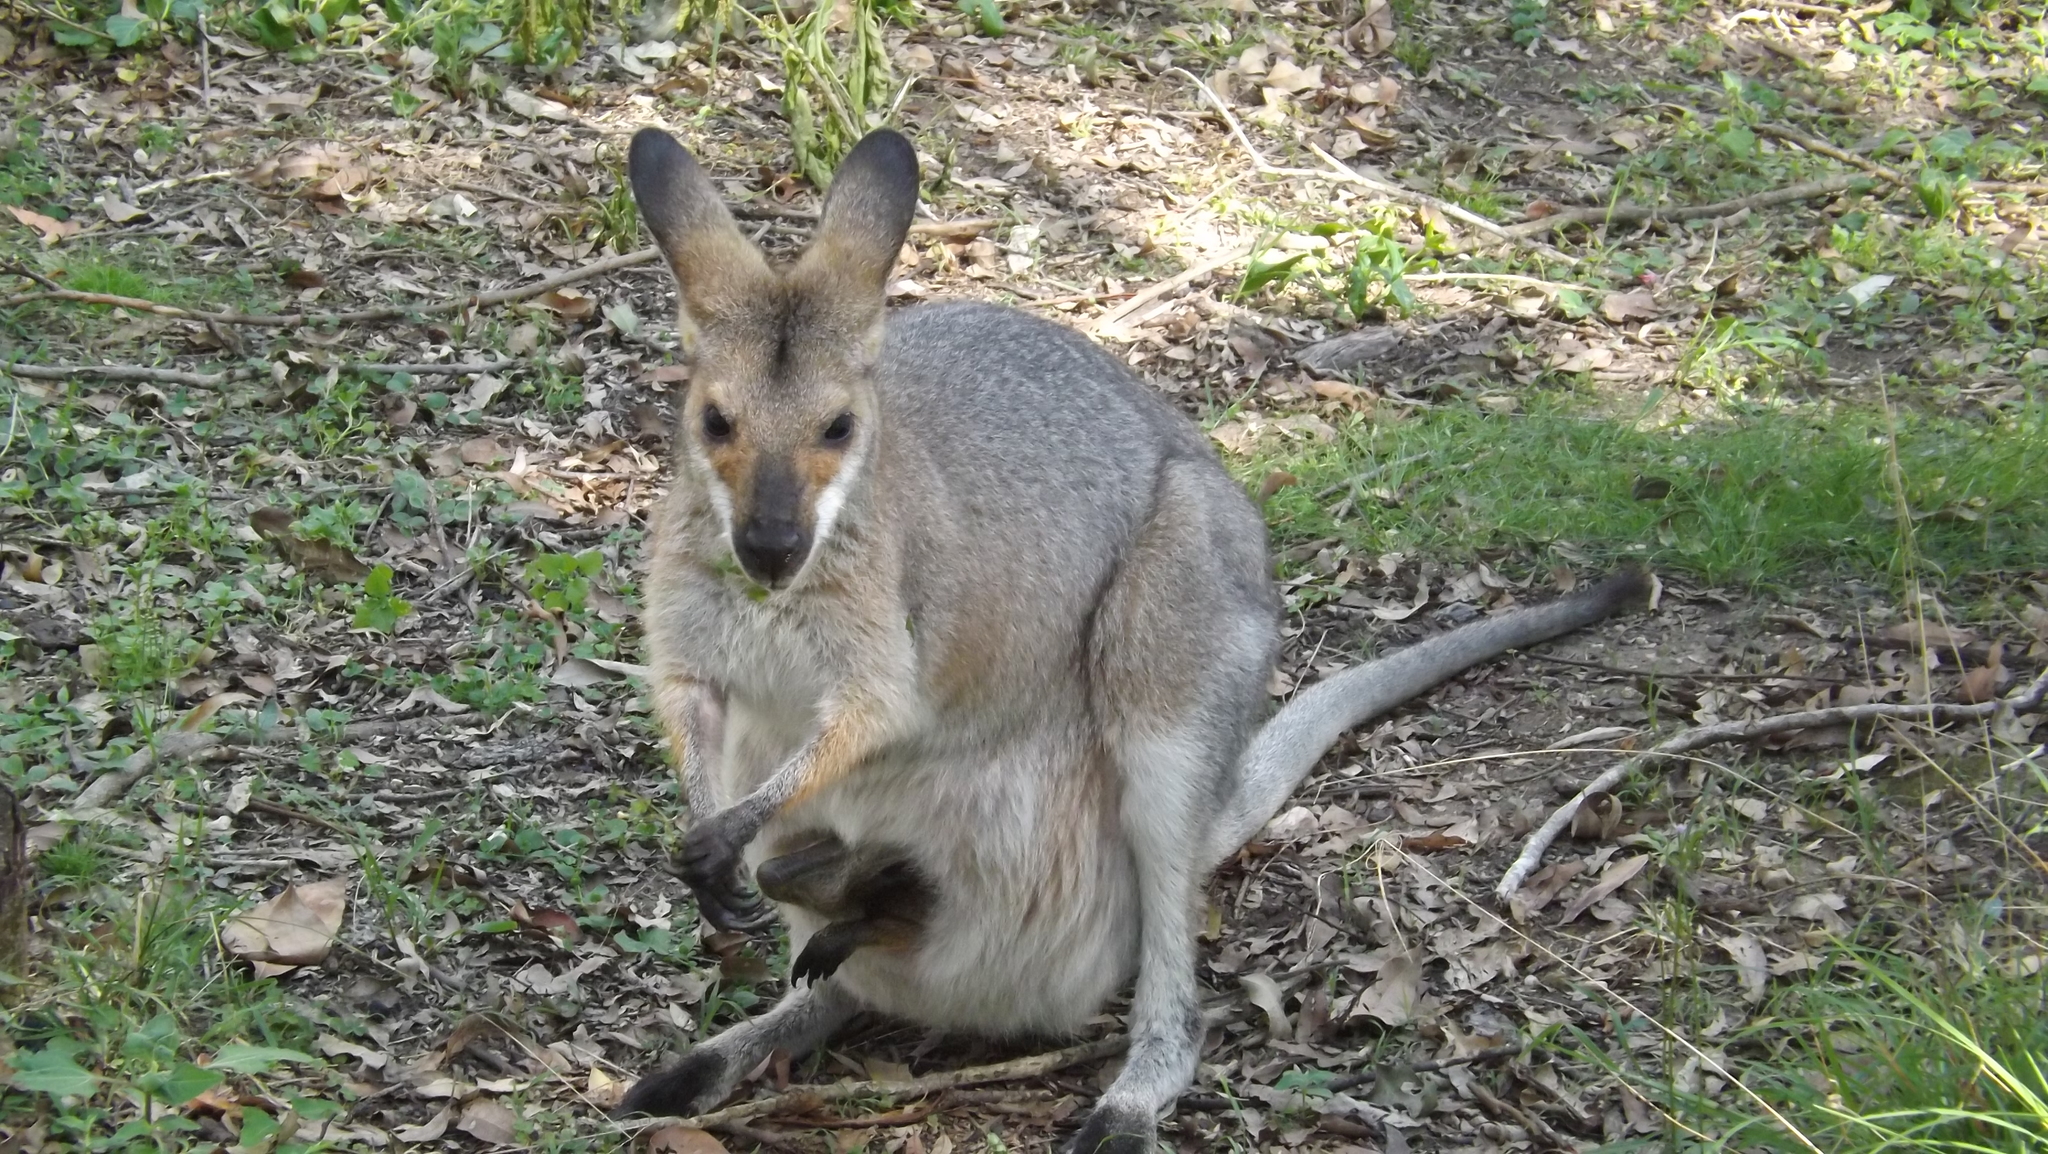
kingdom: Animalia
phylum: Chordata
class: Mammalia
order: Diprotodontia
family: Macropodidae
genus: Notamacropus
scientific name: Notamacropus rufogriseus
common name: Red-necked wallaby
